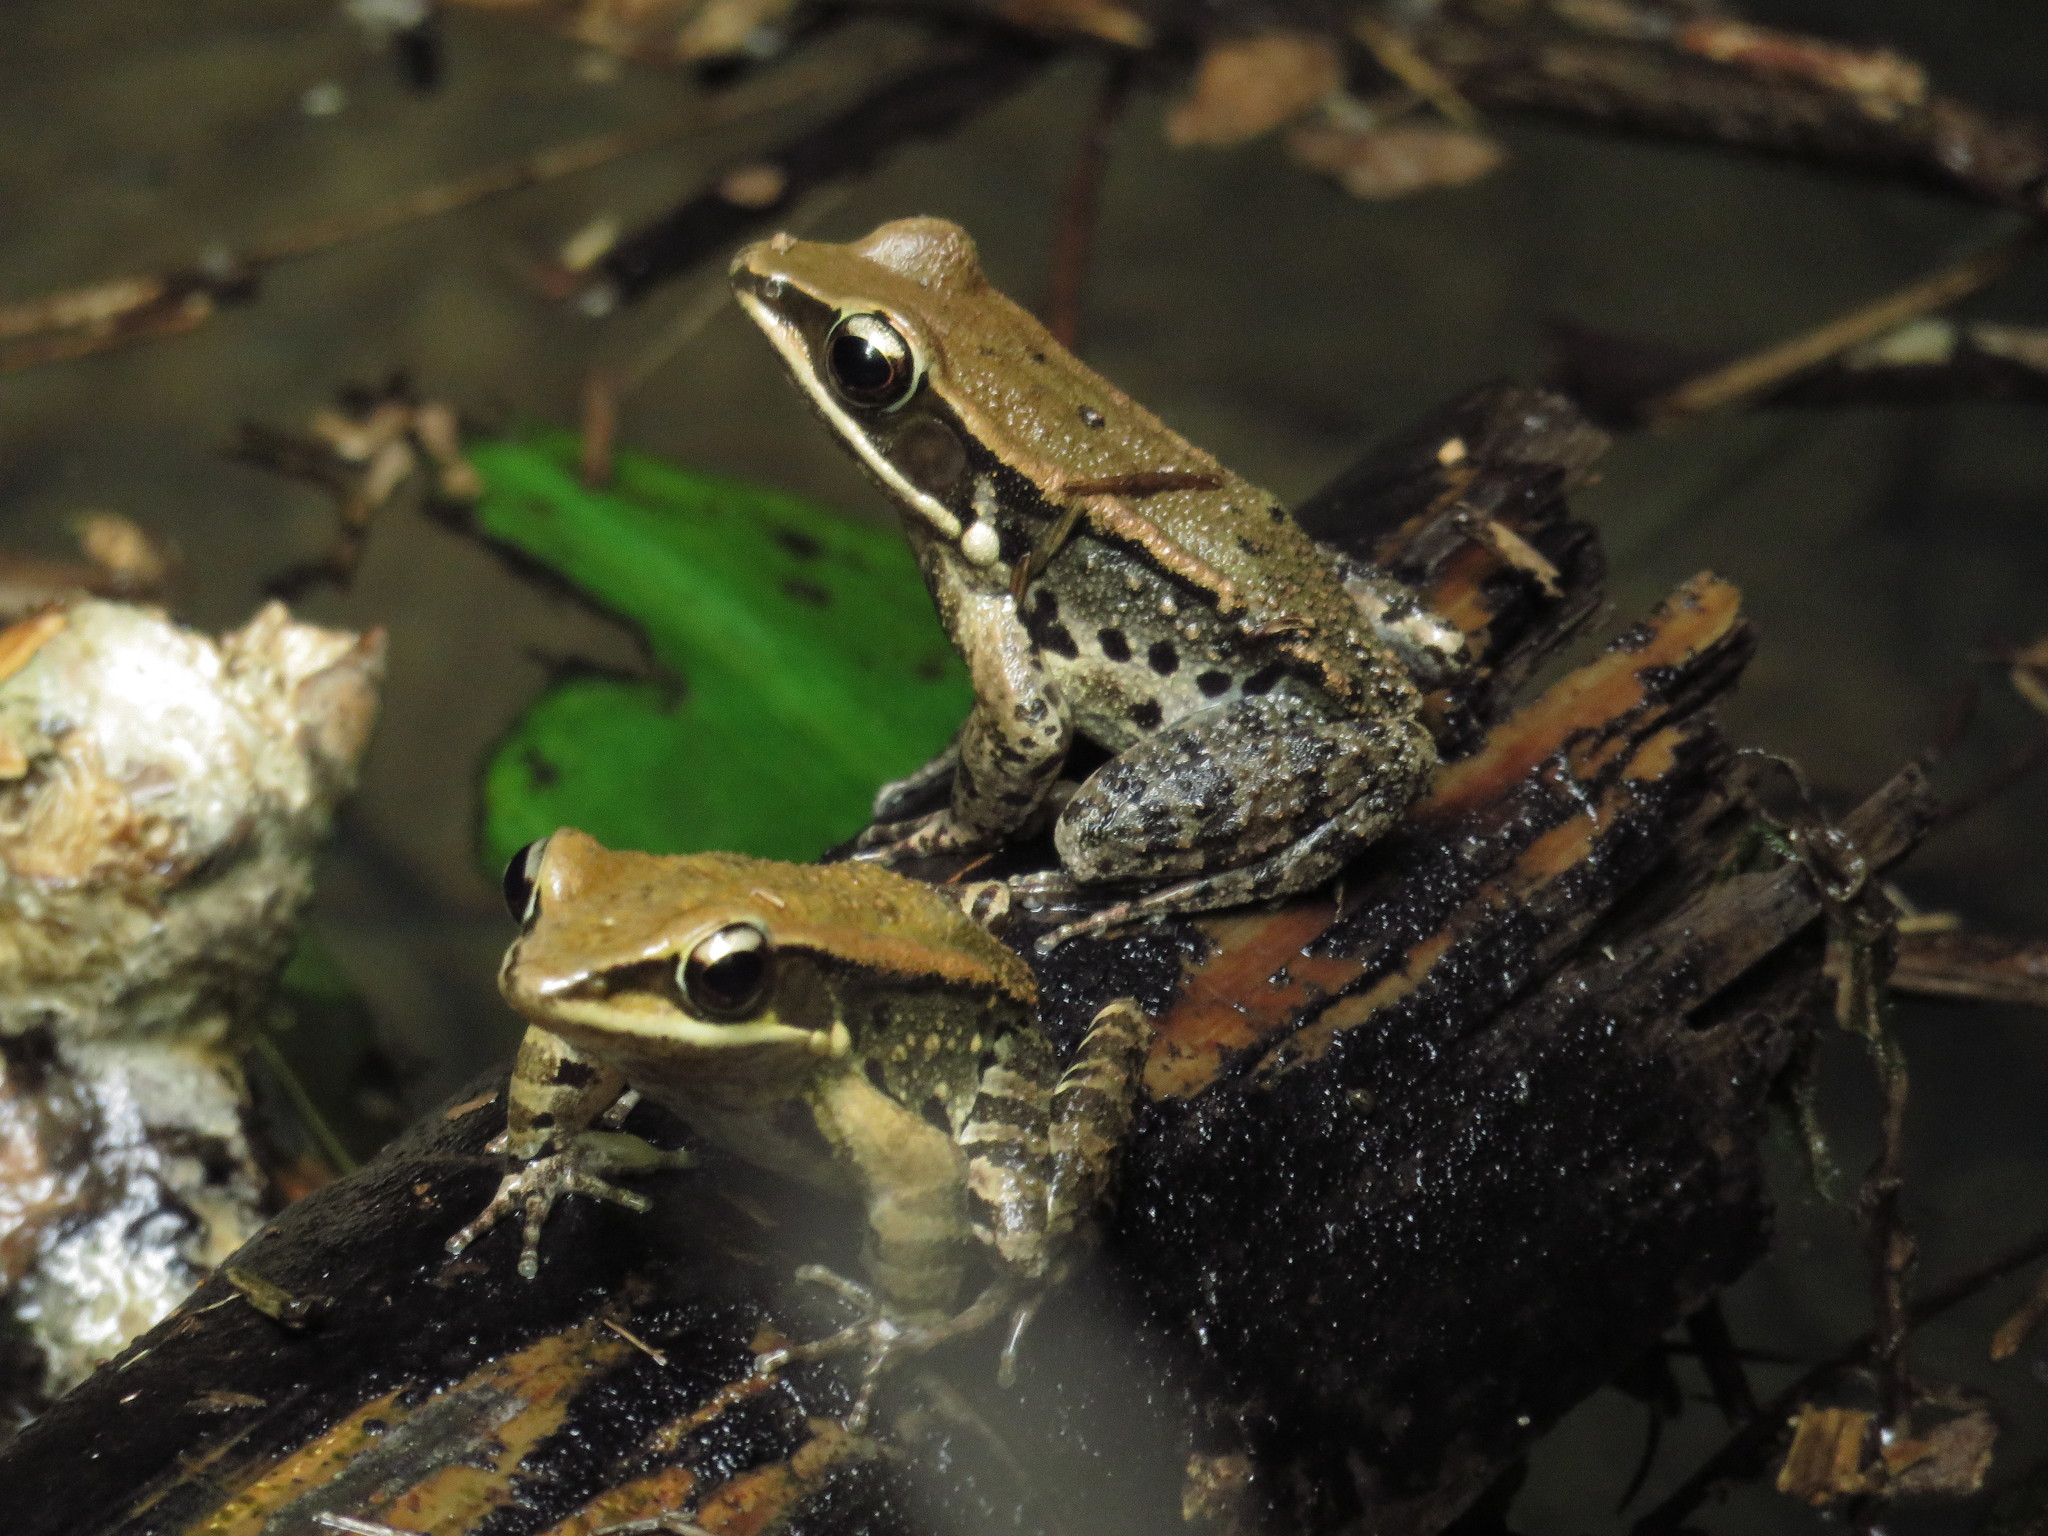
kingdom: Animalia
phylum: Chordata
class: Amphibia
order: Anura
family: Ranidae
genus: Hylarana
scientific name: Hylarana latouchii
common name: Broad-folded frog
